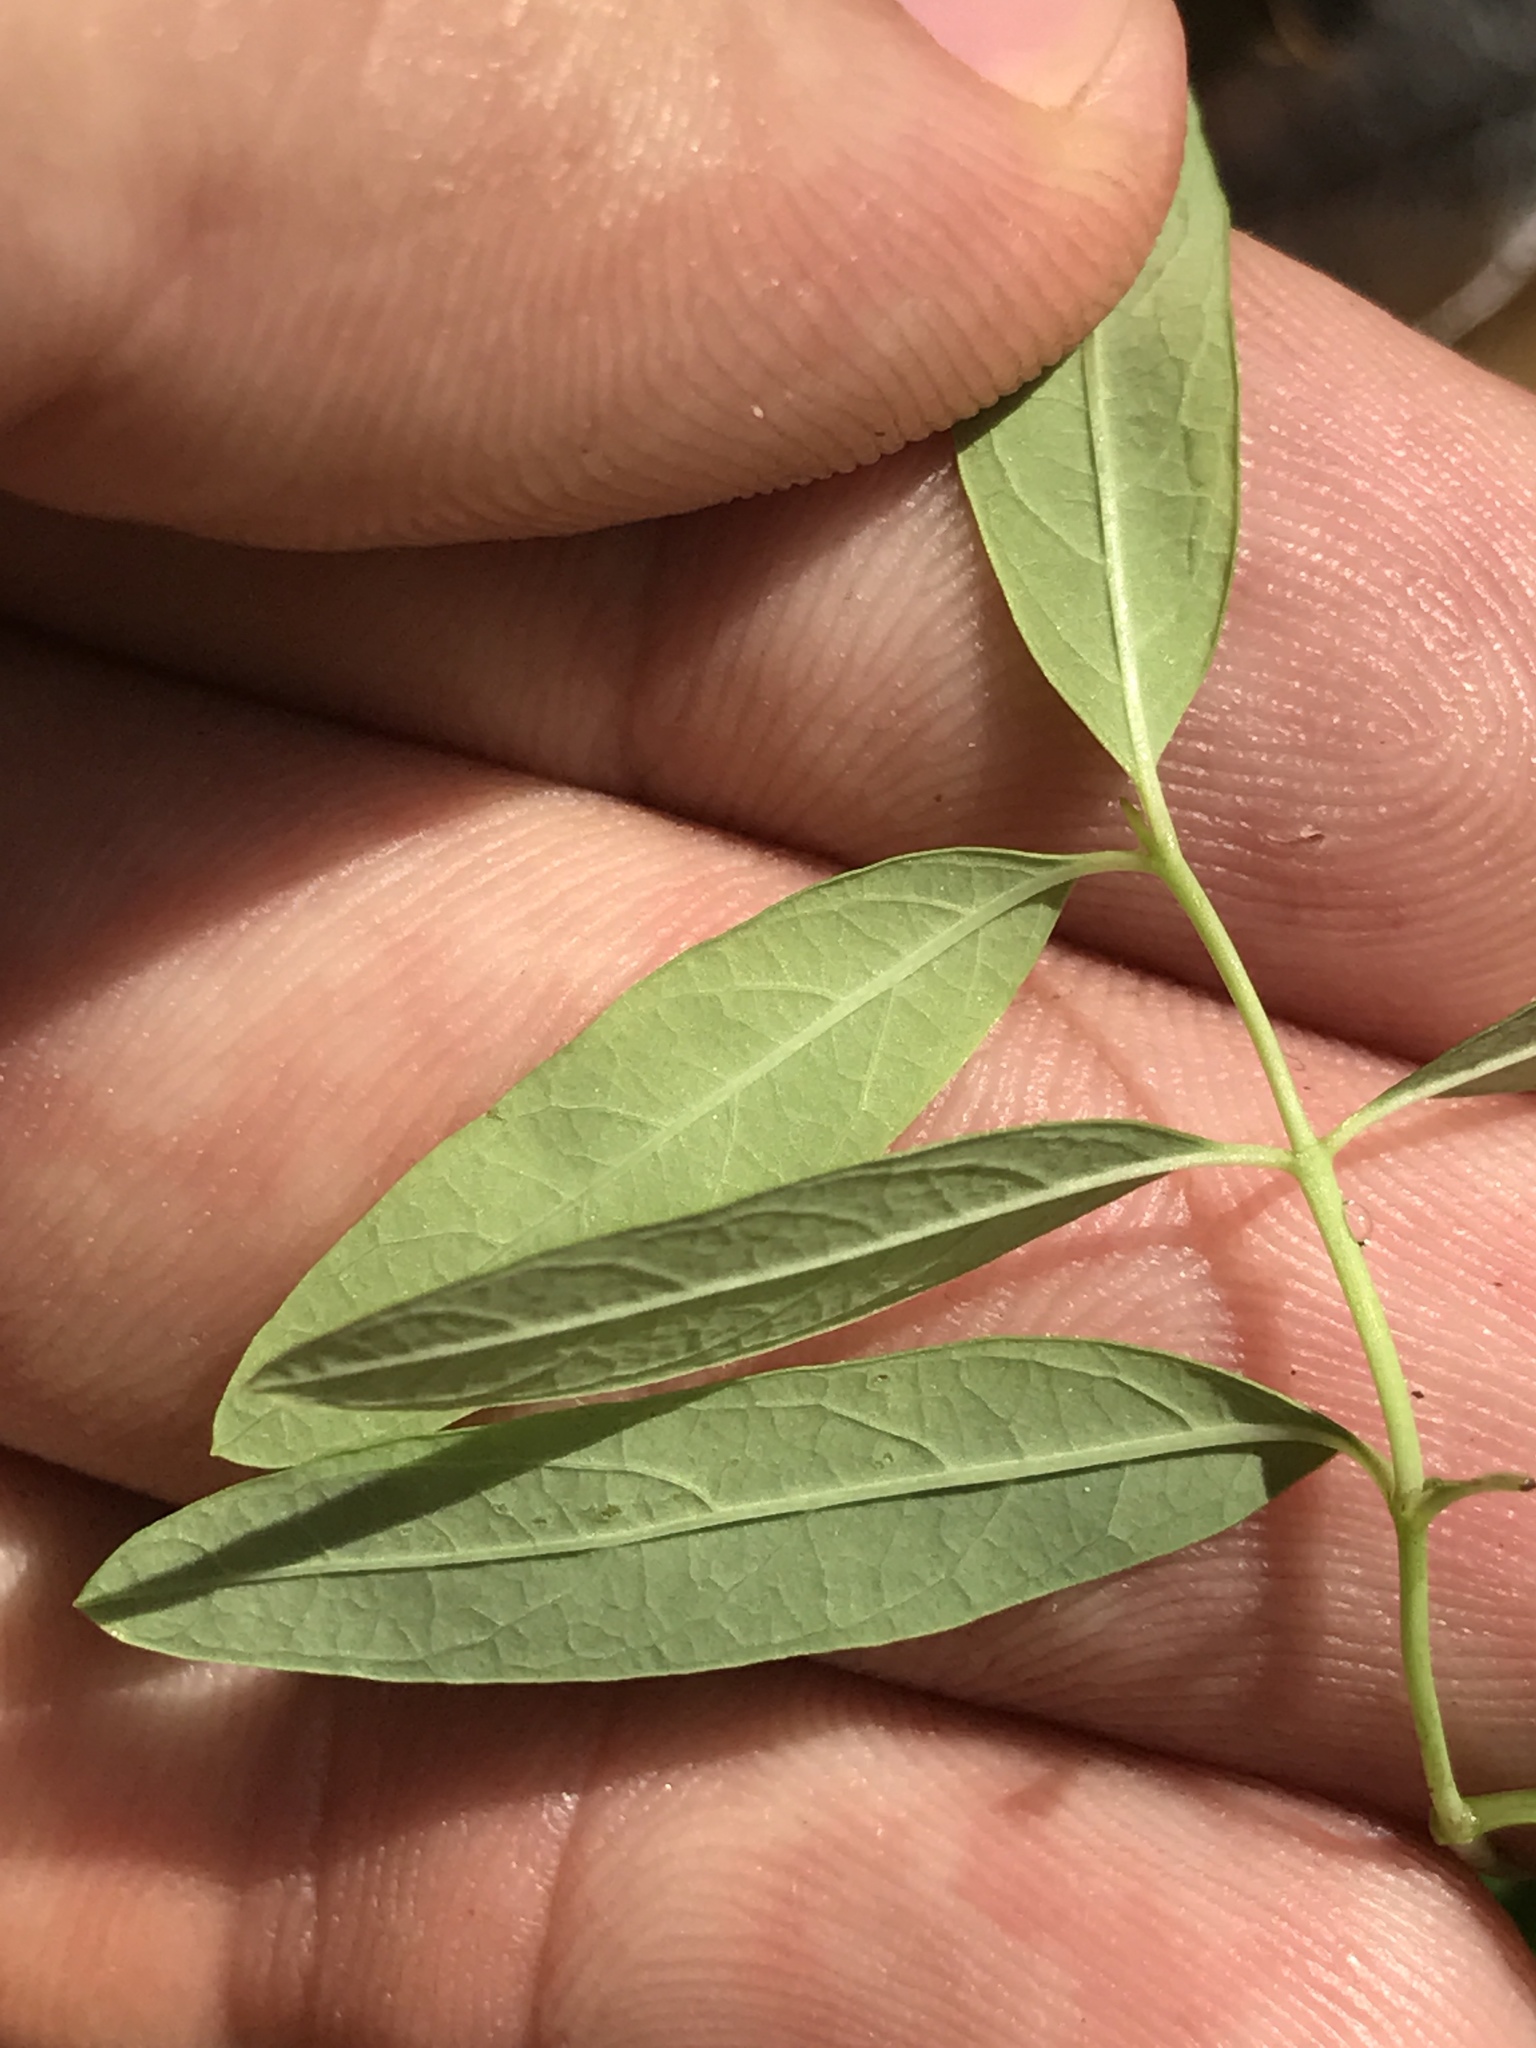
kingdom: Plantae
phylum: Tracheophyta
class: Magnoliopsida
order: Malpighiales
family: Euphorbiaceae
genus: Euphorbia
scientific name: Euphorbia corollata
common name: Flowering spurge
